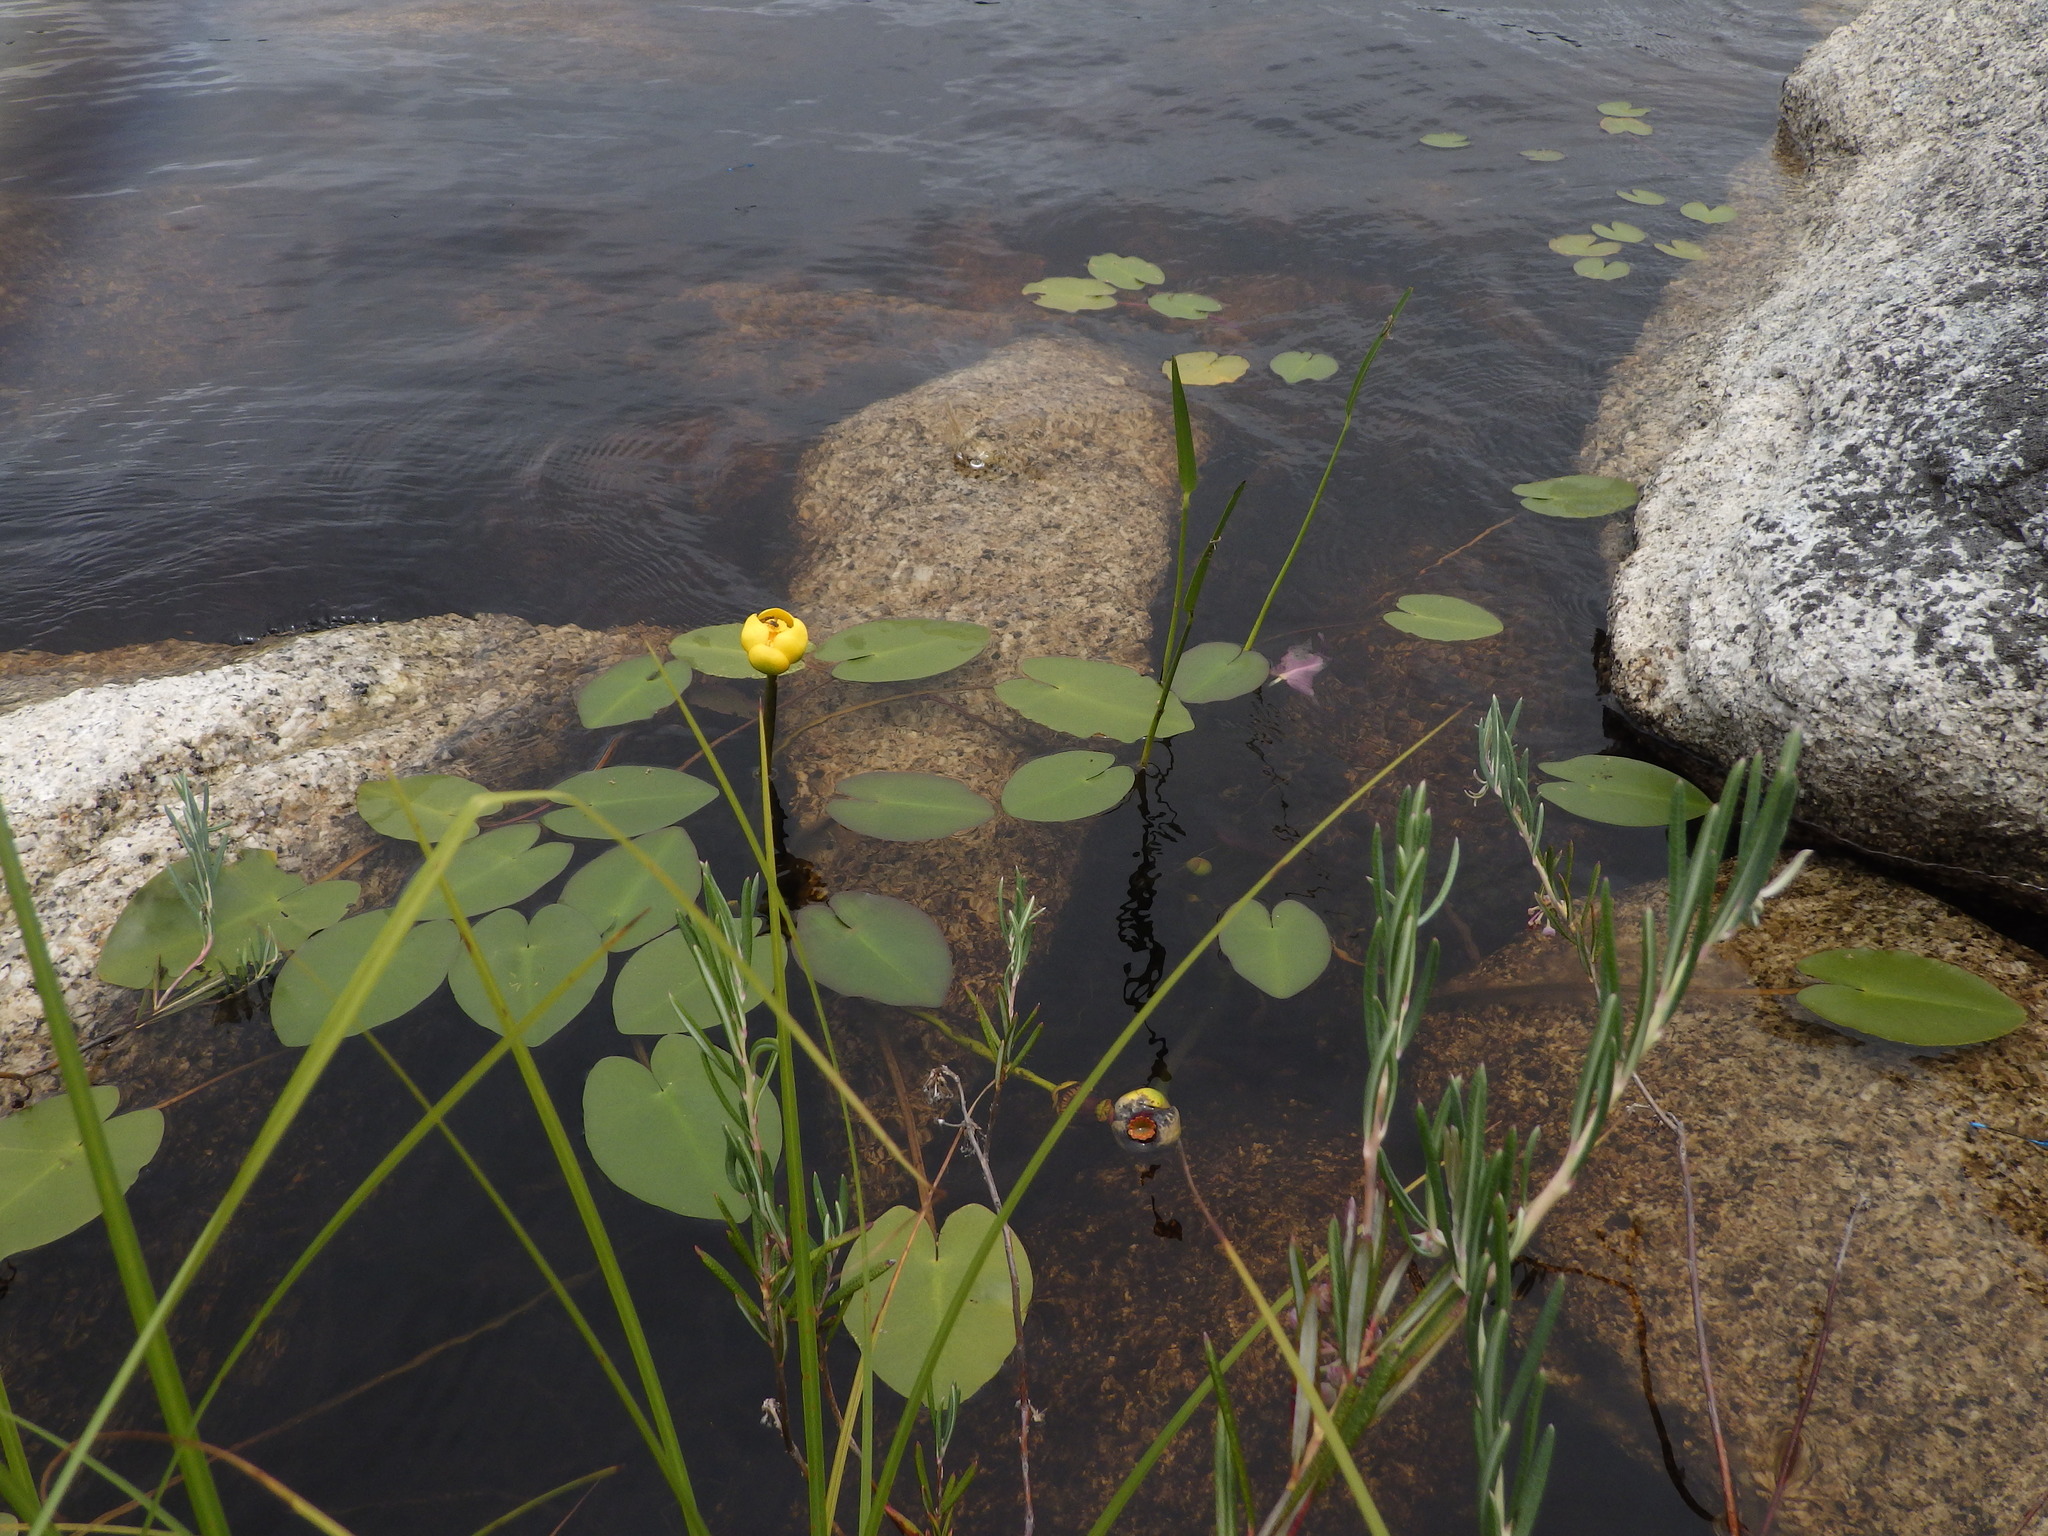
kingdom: Plantae
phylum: Tracheophyta
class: Magnoliopsida
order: Nymphaeales
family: Nymphaeaceae
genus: Nuphar
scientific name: Nuphar variegata
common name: Beaver-root
